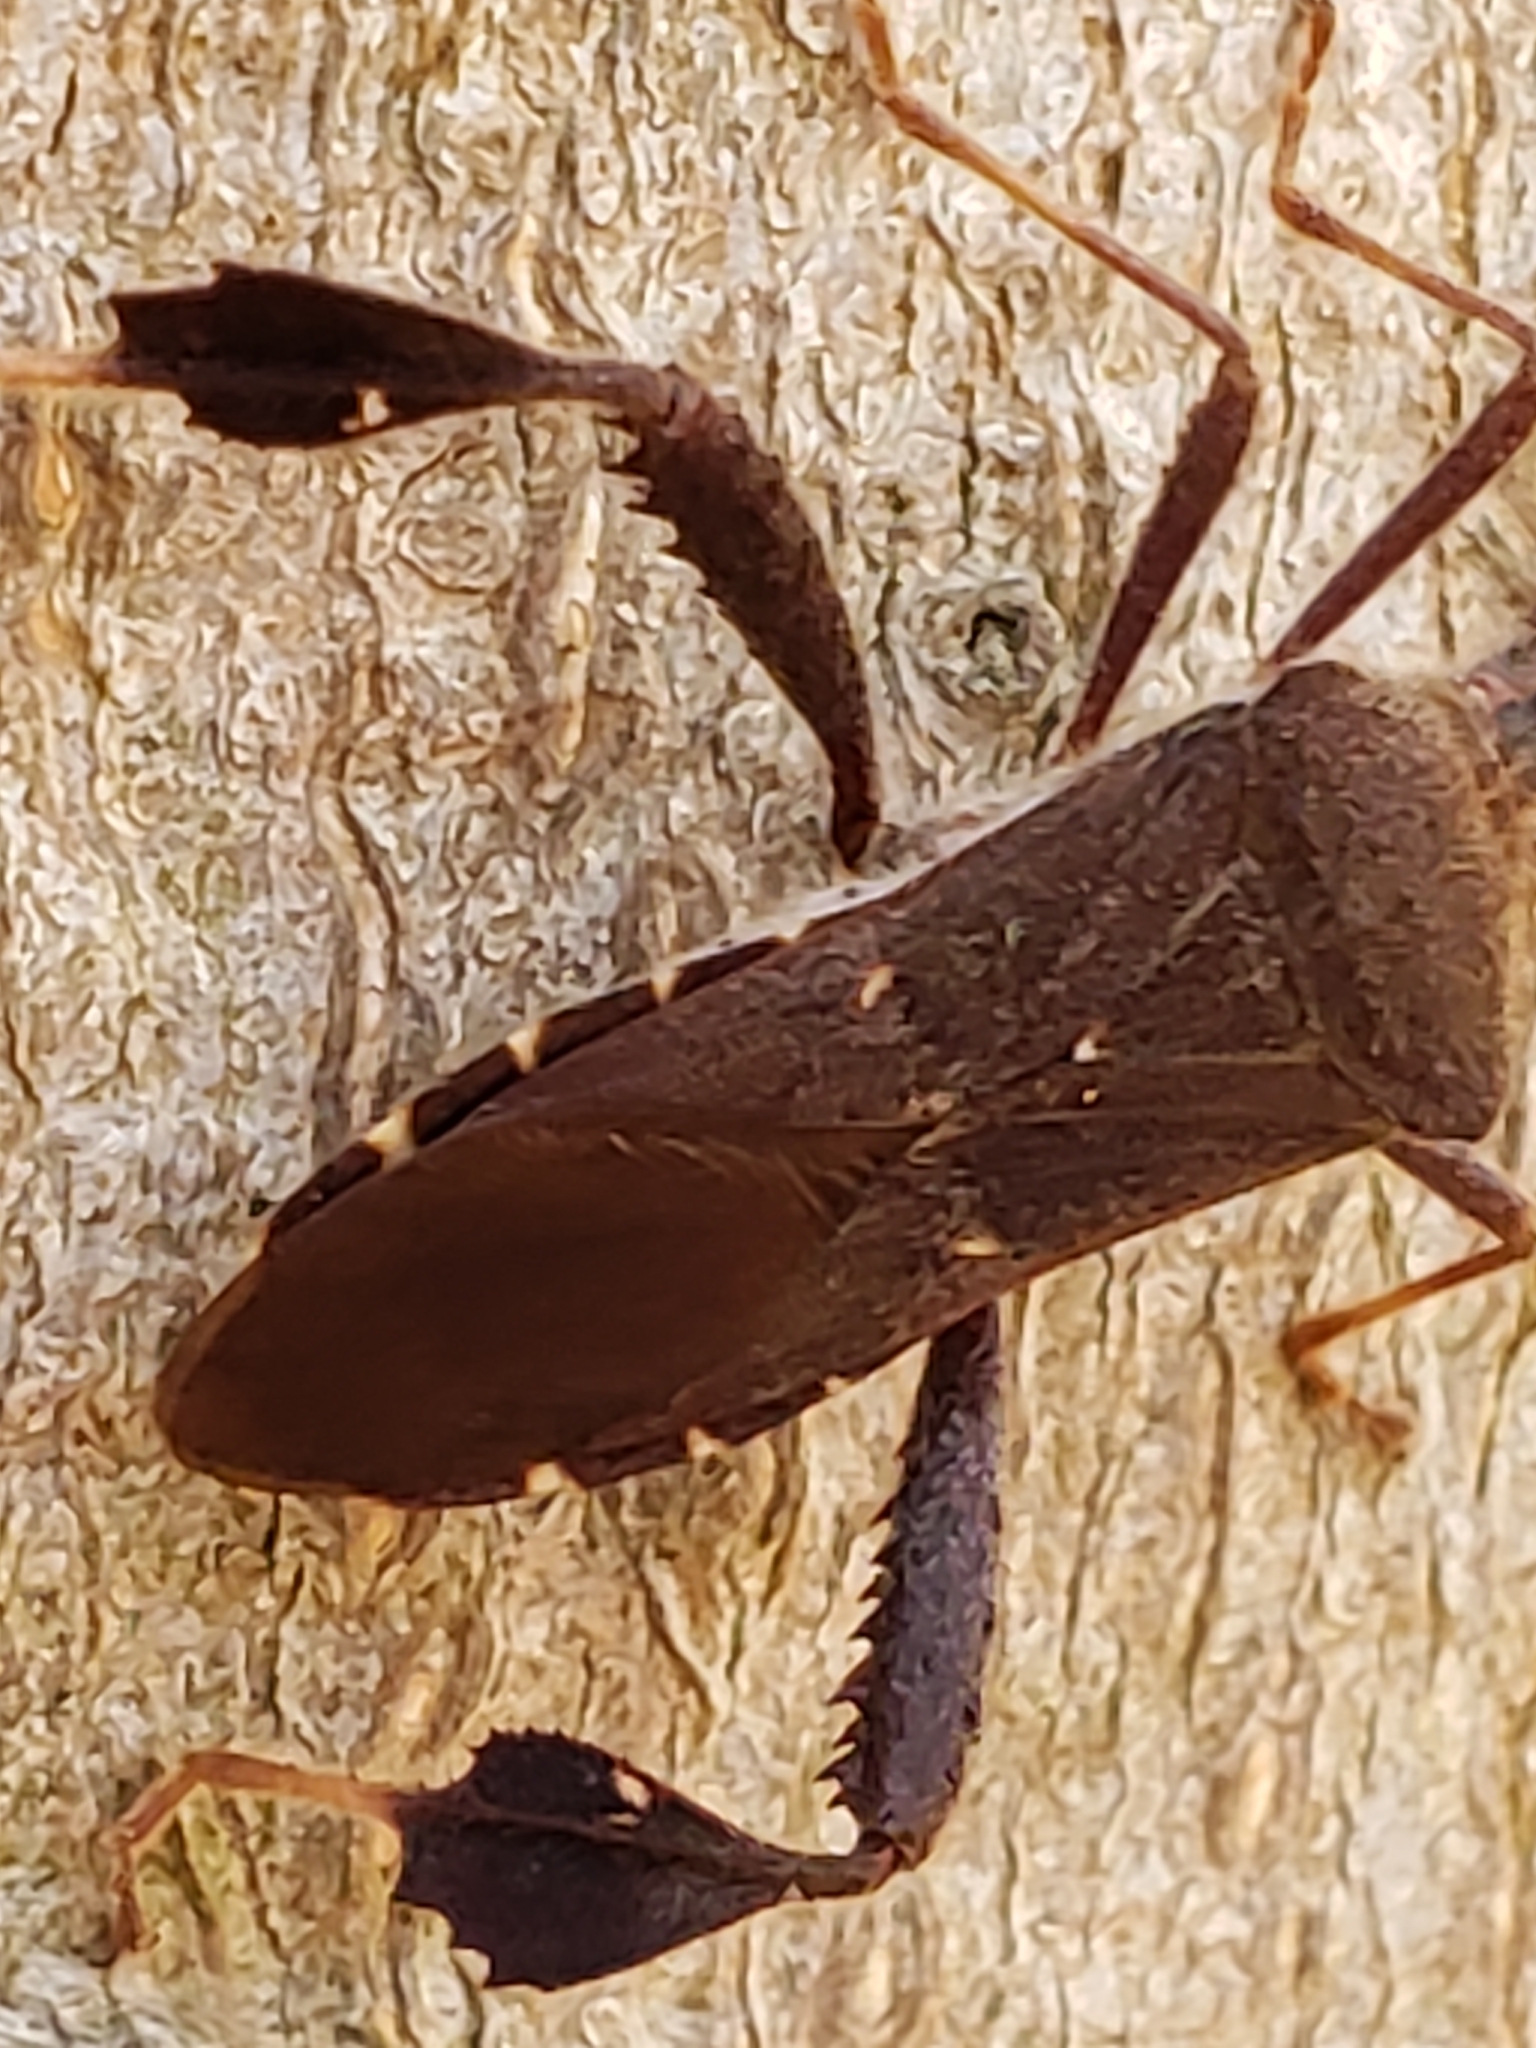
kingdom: Animalia
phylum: Arthropoda
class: Insecta
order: Hemiptera
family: Coreidae
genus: Leptoglossus
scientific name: Leptoglossus oppositus
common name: Northern leaf-footed bug
